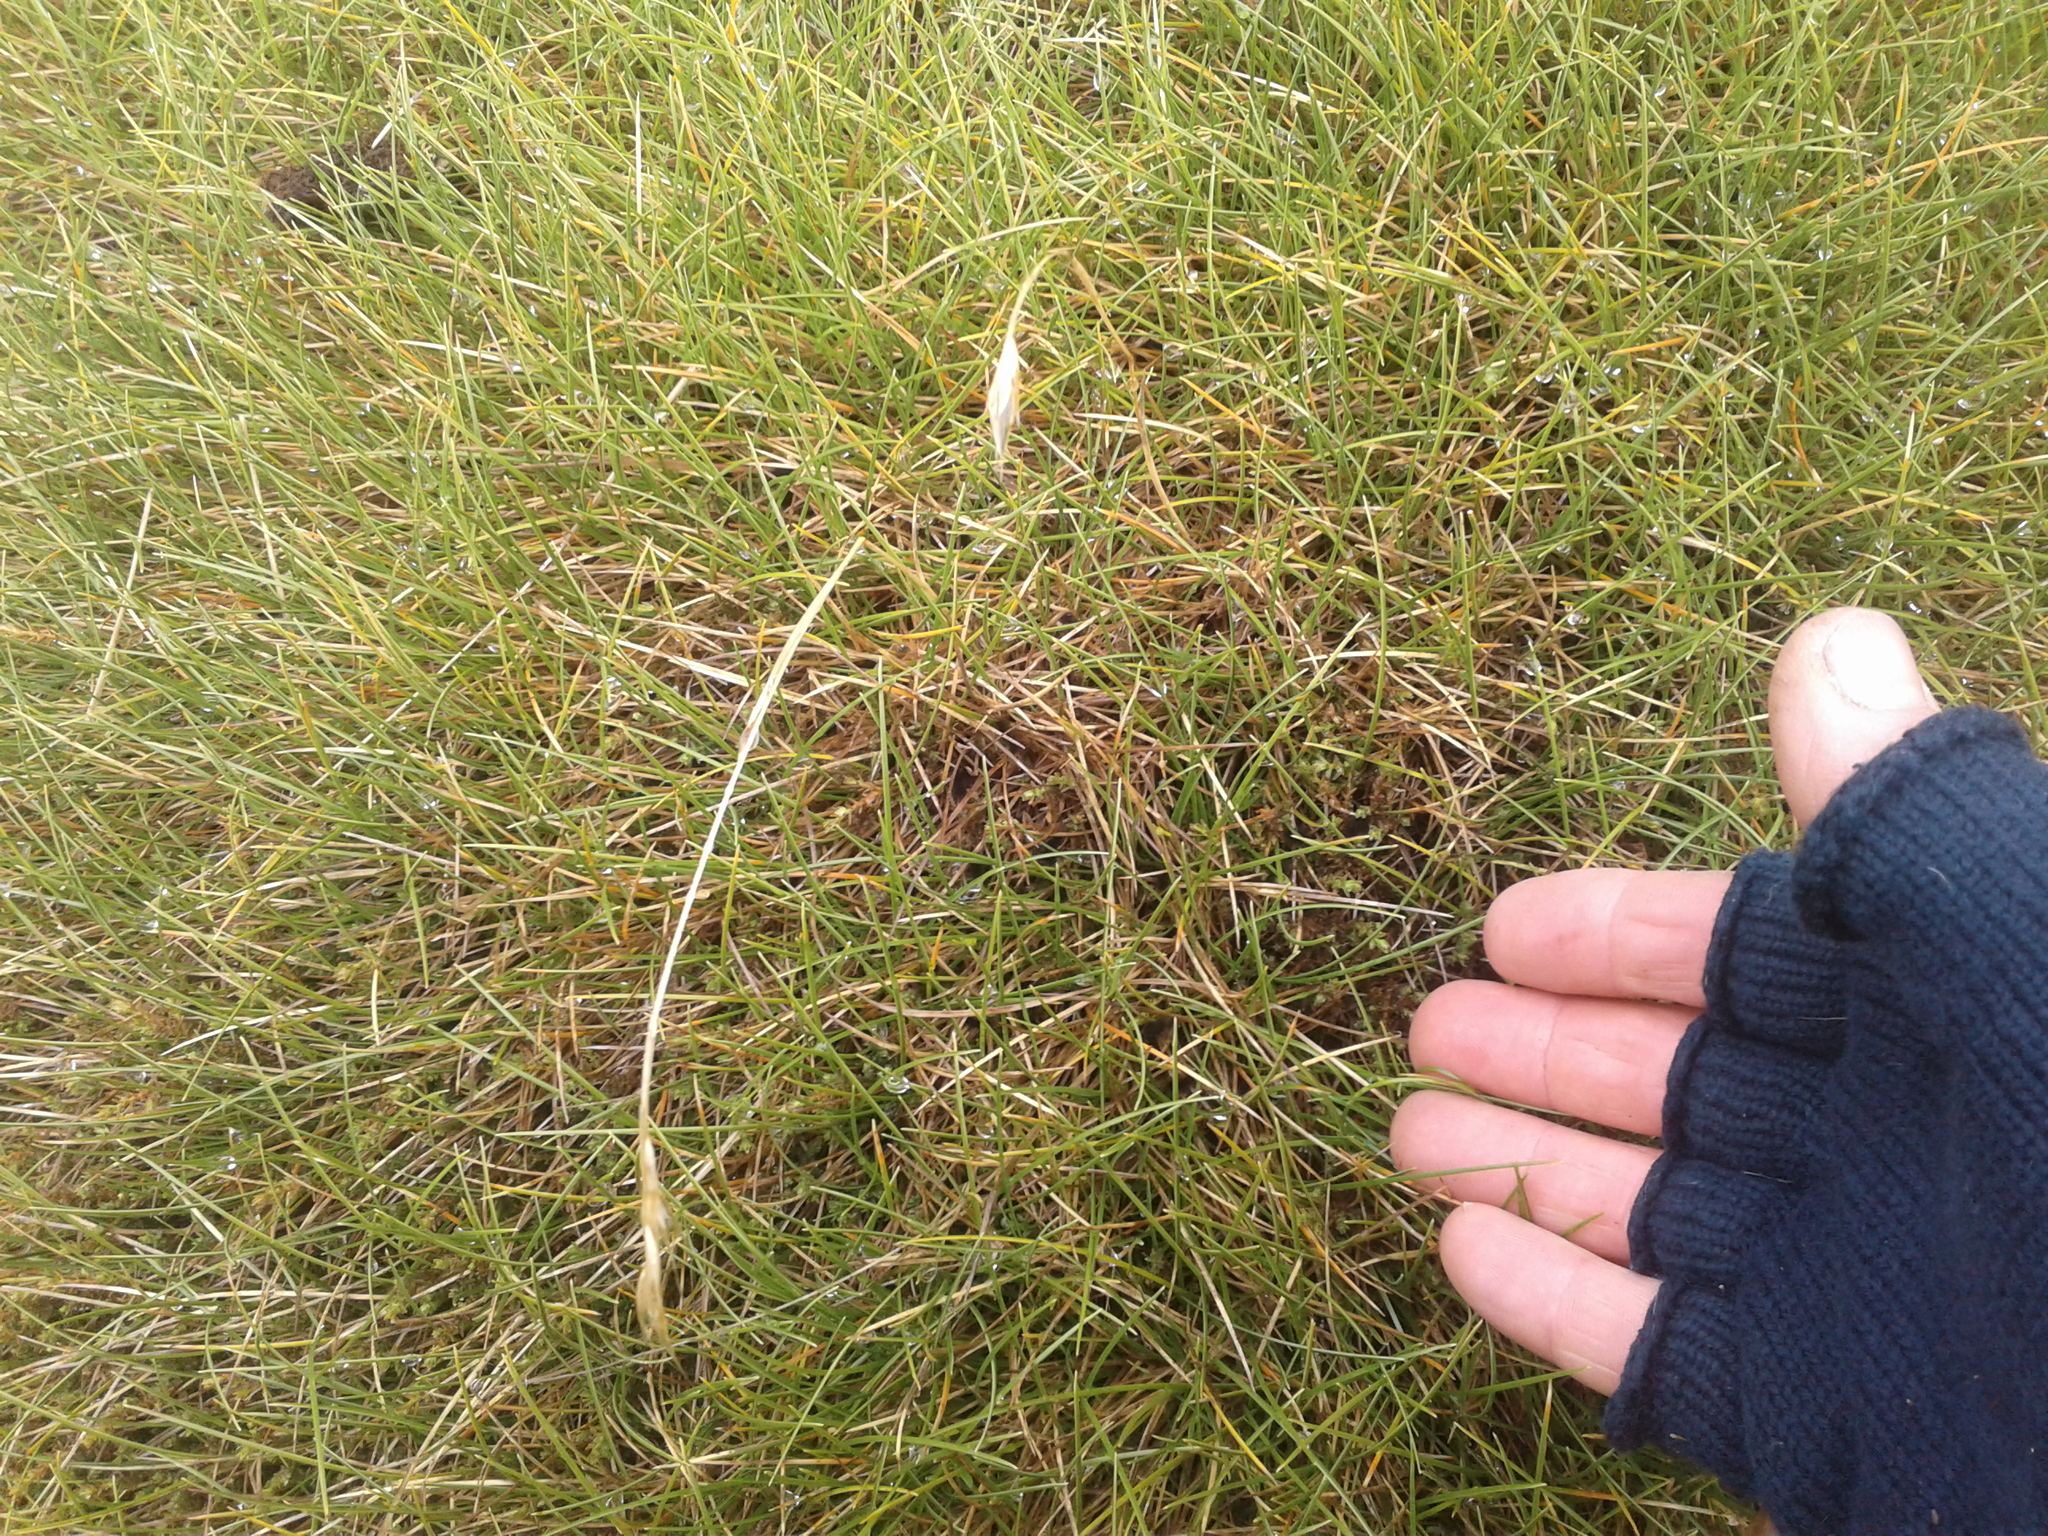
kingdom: Plantae
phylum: Tracheophyta
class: Liliopsida
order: Poales
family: Poaceae
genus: Chionochloa
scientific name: Chionochloa australis
